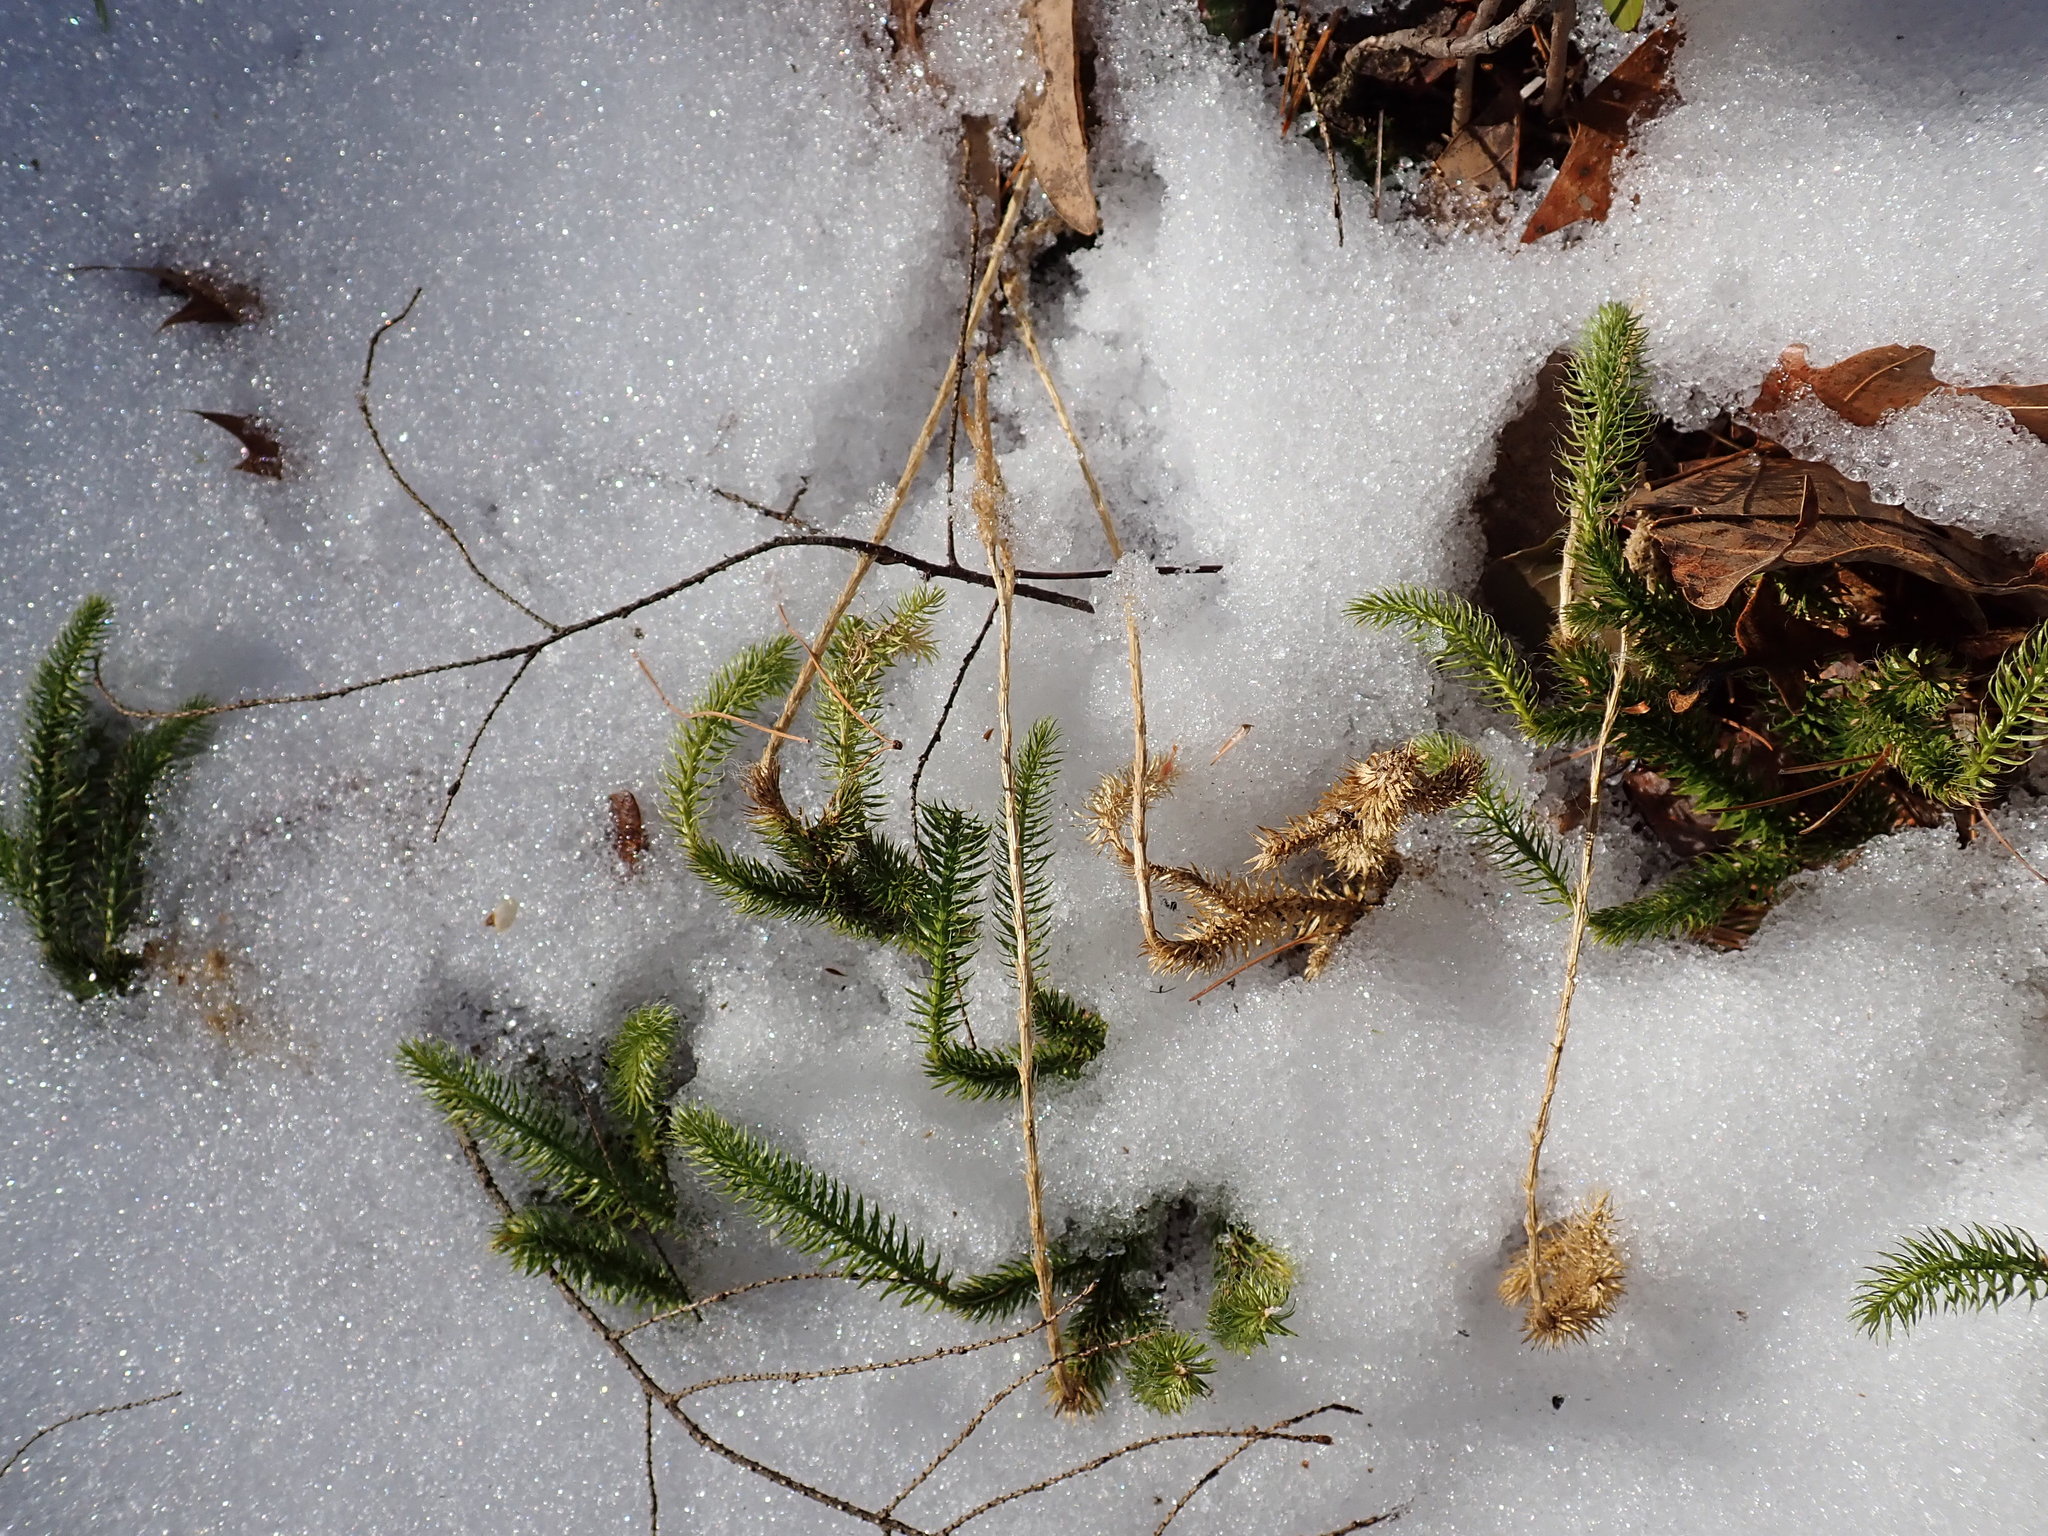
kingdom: Plantae
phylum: Tracheophyta
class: Lycopodiopsida
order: Lycopodiales
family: Lycopodiaceae
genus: Lycopodium
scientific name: Lycopodium clavatum
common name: Stag's-horn clubmoss
